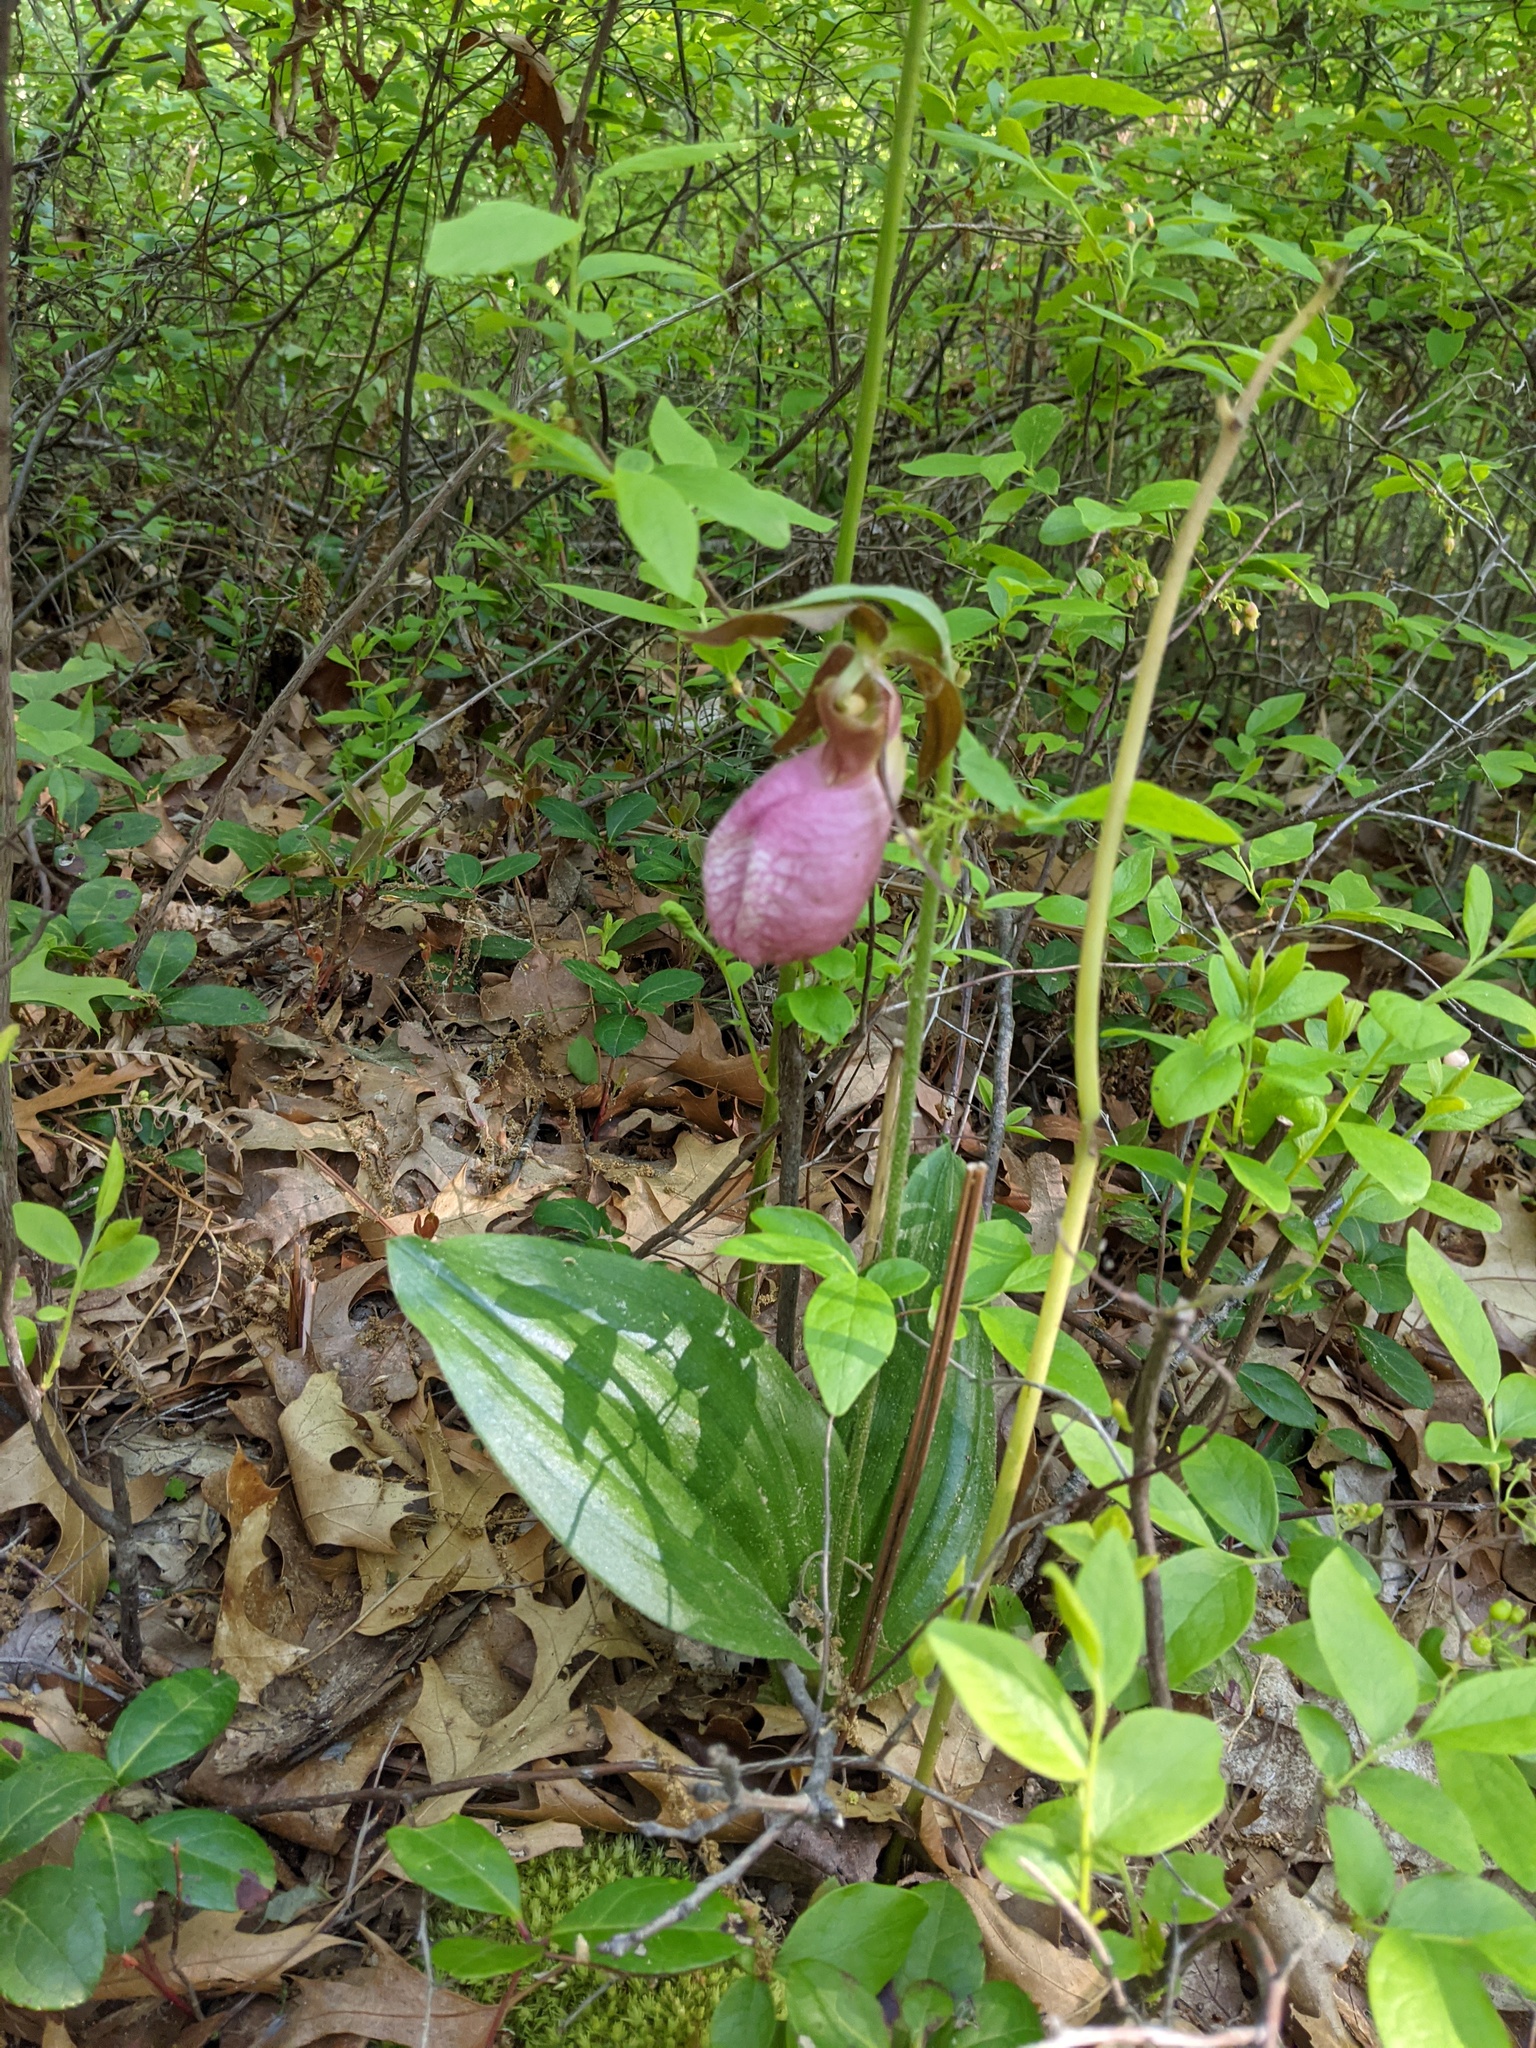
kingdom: Plantae
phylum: Tracheophyta
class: Liliopsida
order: Asparagales
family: Orchidaceae
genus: Cypripedium
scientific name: Cypripedium acaule
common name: Pink lady's-slipper
